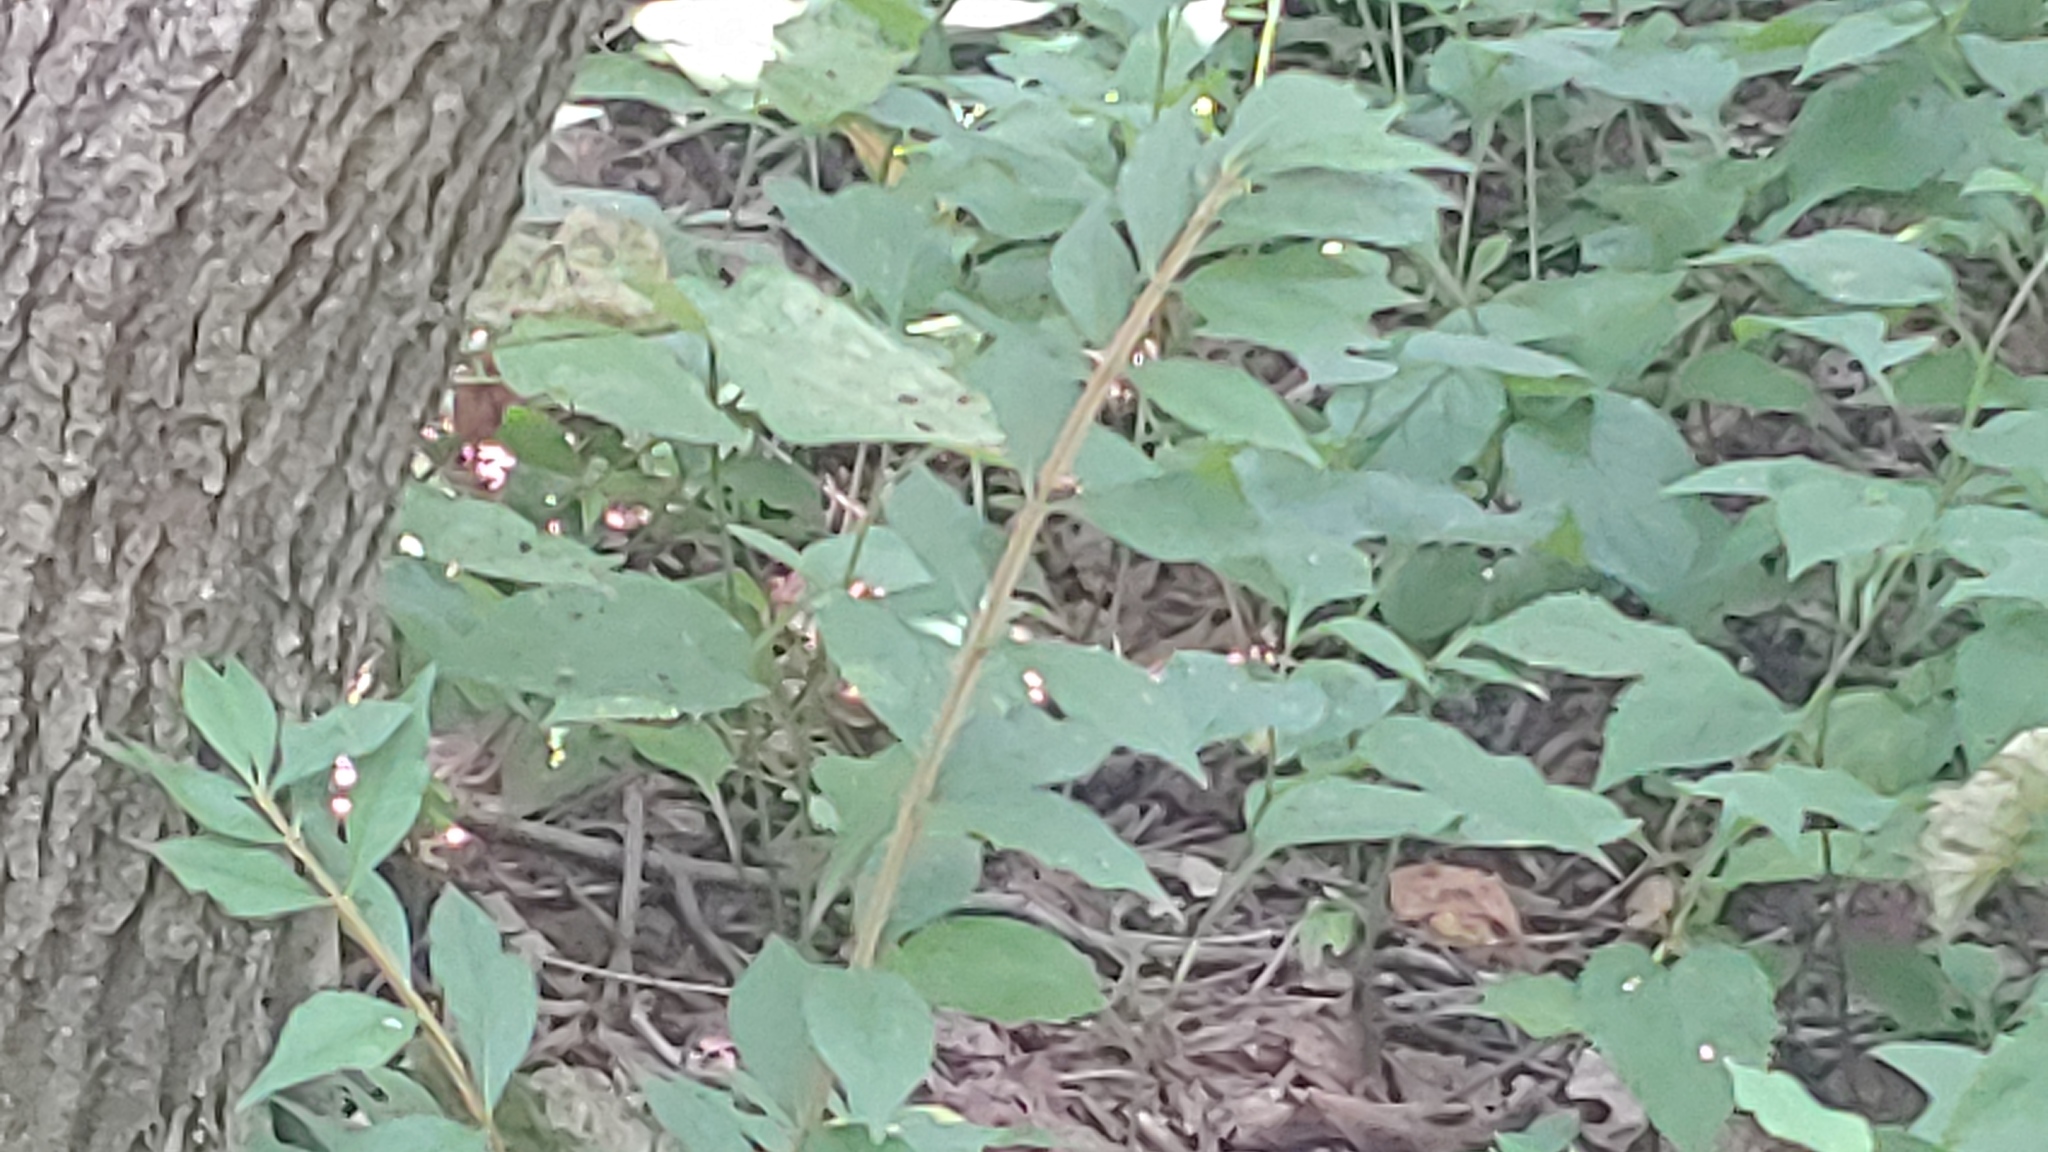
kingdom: Plantae
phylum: Tracheophyta
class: Magnoliopsida
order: Celastrales
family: Celastraceae
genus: Euonymus
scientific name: Euonymus alatus
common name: Winged euonymus
